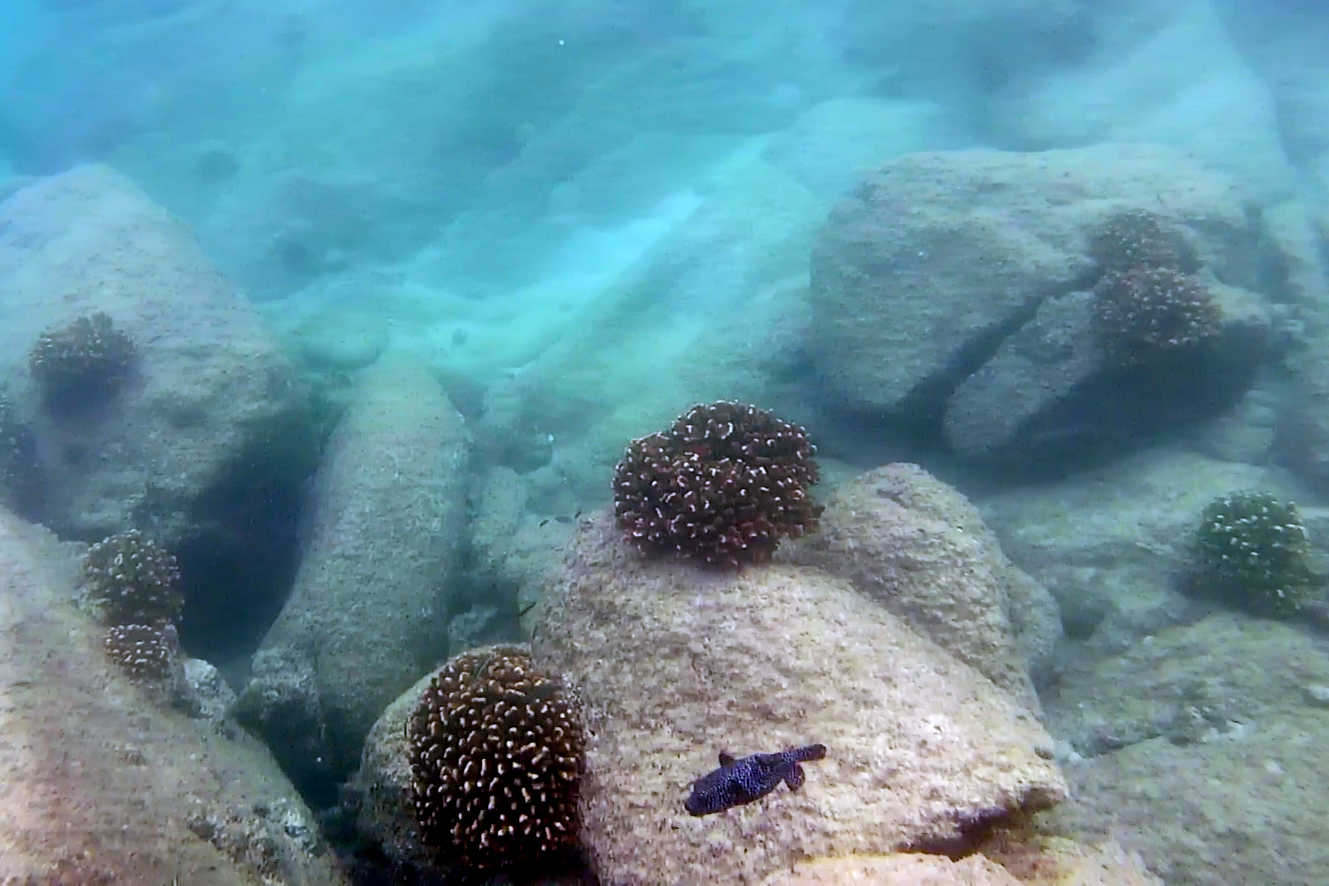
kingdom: Animalia
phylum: Chordata
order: Tetraodontiformes
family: Tetraodontidae
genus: Arothron
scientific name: Arothron meleagris
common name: Guinea-fowl pufferfish
